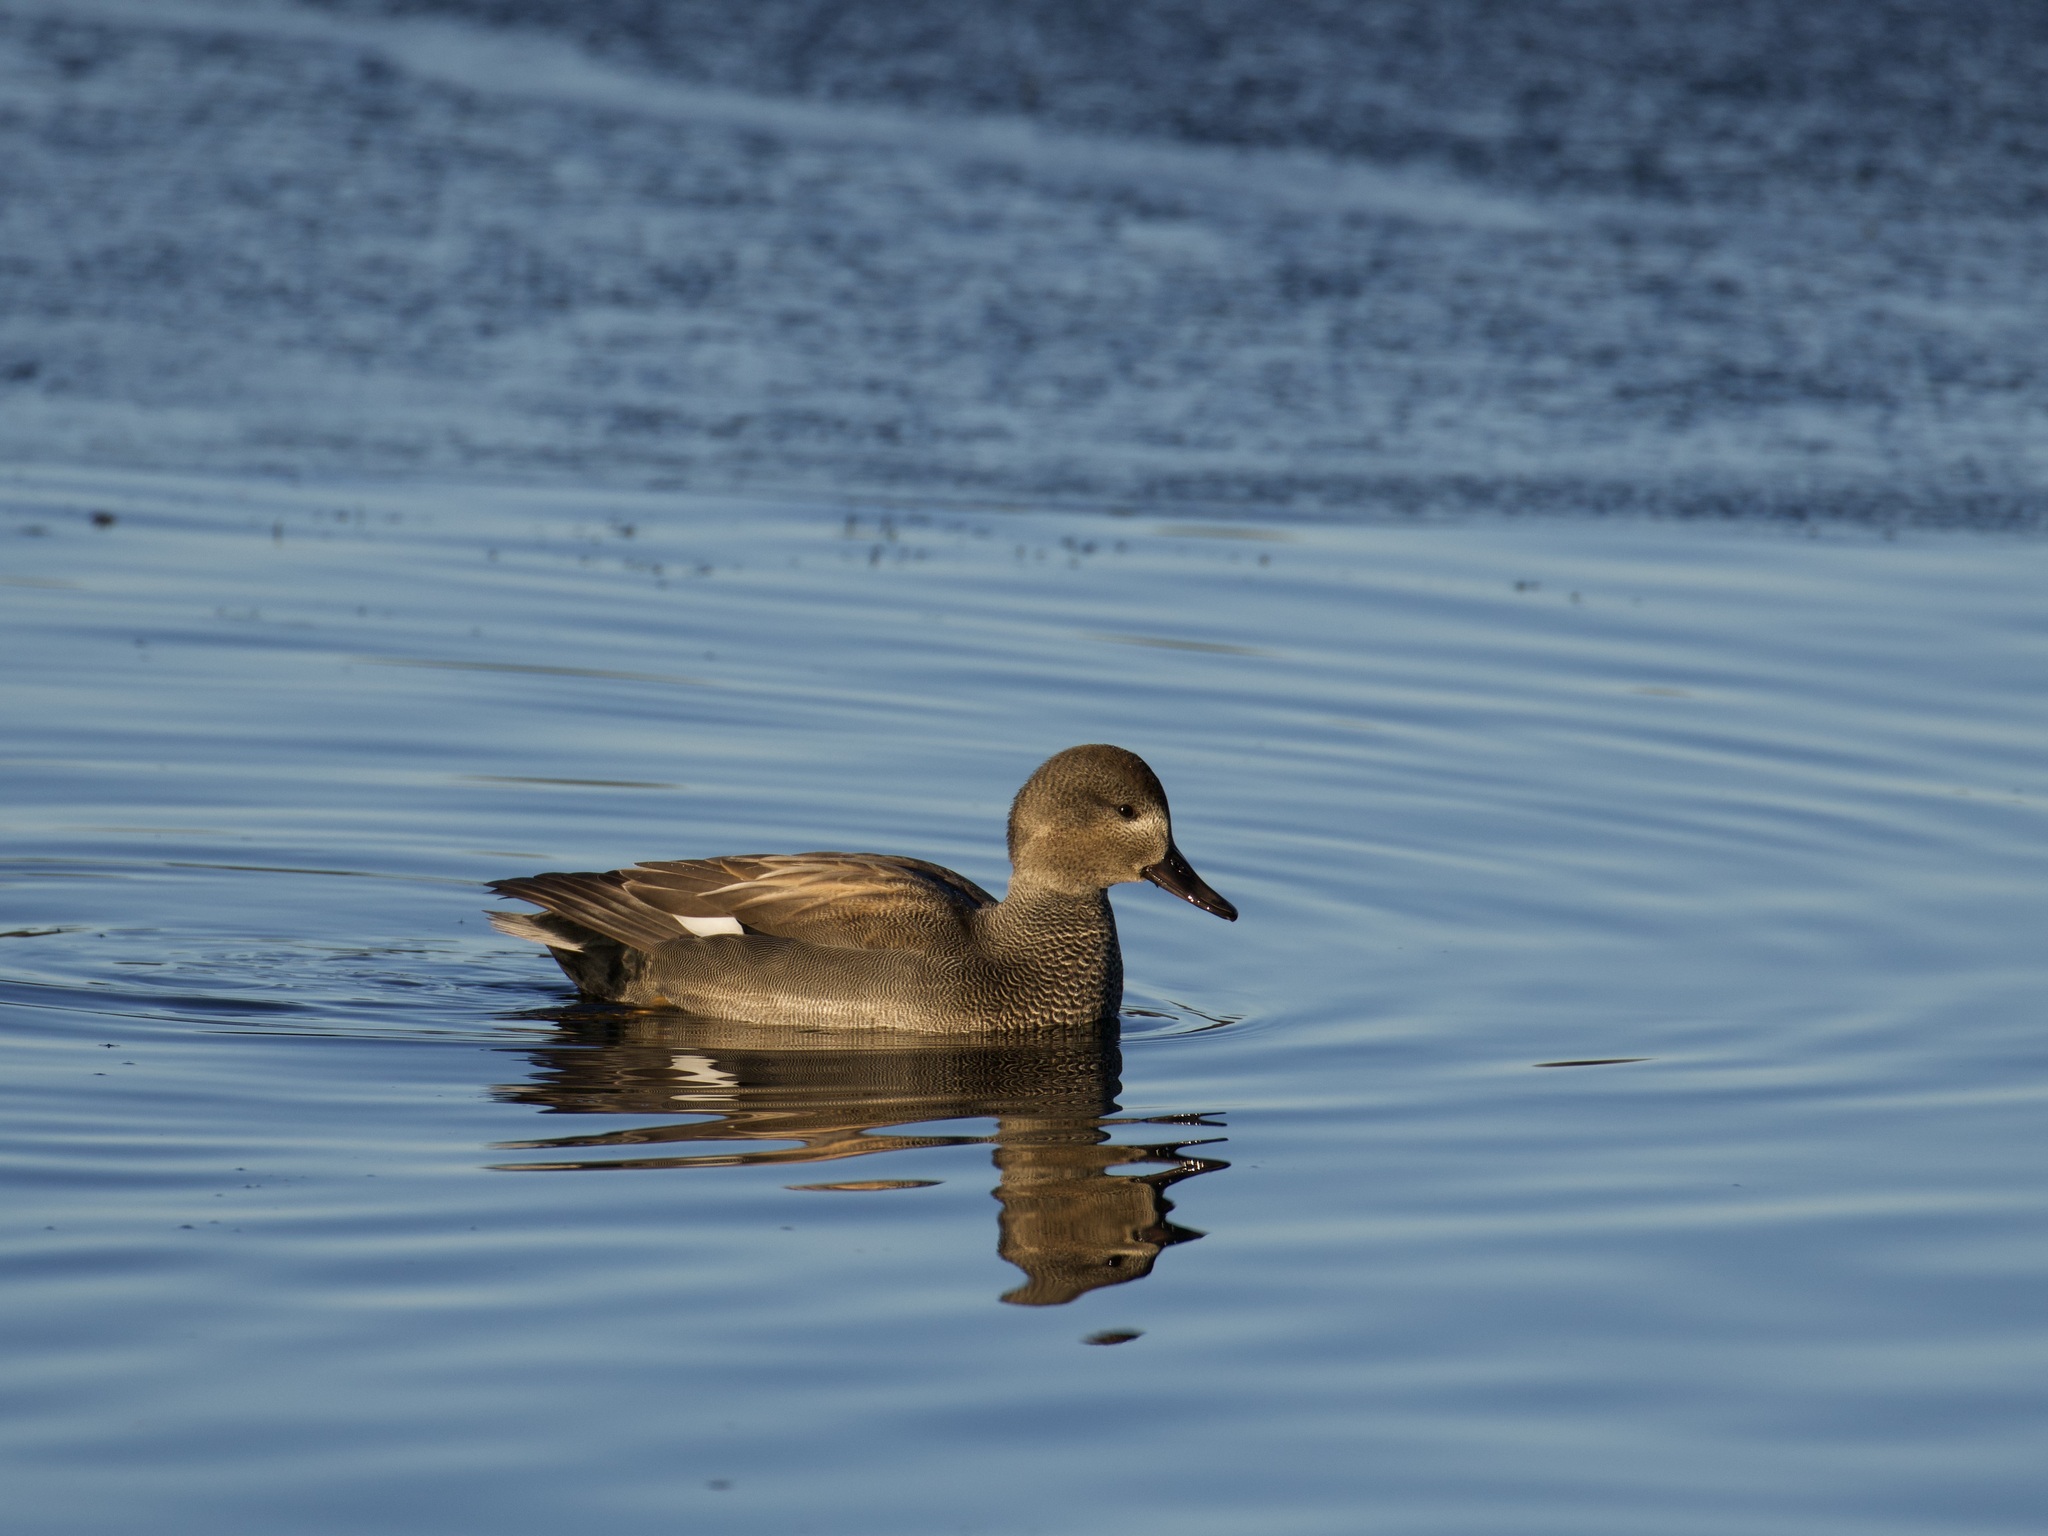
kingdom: Animalia
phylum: Chordata
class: Aves
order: Anseriformes
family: Anatidae
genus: Mareca
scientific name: Mareca strepera
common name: Gadwall
